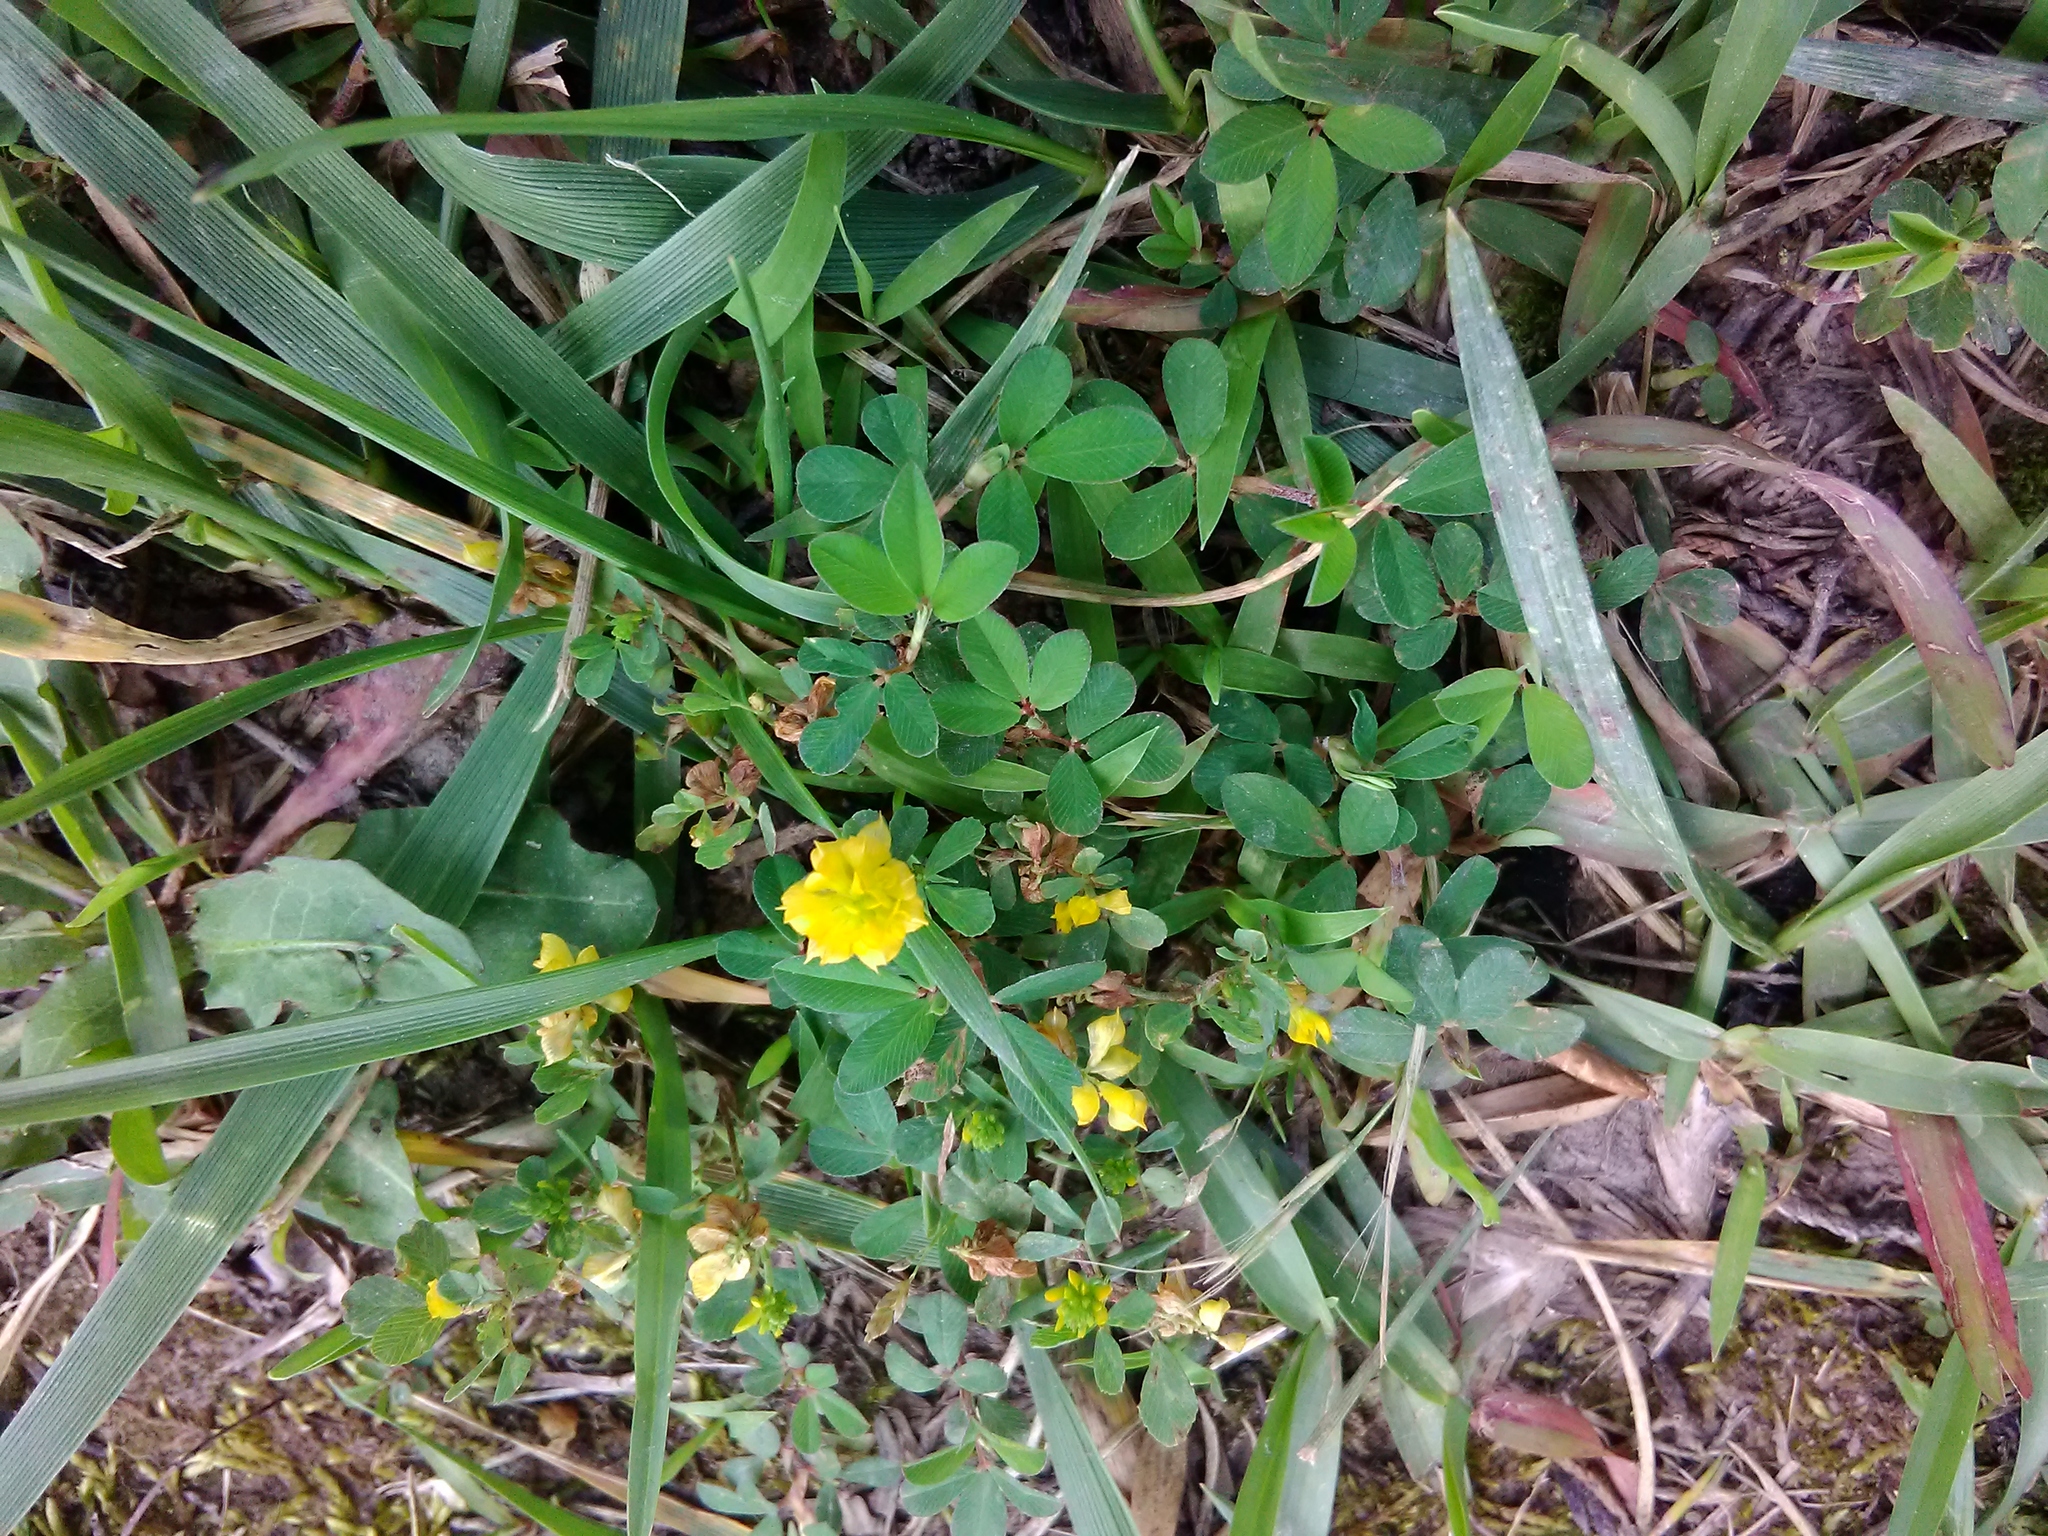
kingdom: Plantae
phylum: Tracheophyta
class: Magnoliopsida
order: Fabales
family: Fabaceae
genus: Trifolium
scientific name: Trifolium campestre
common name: Field clover
